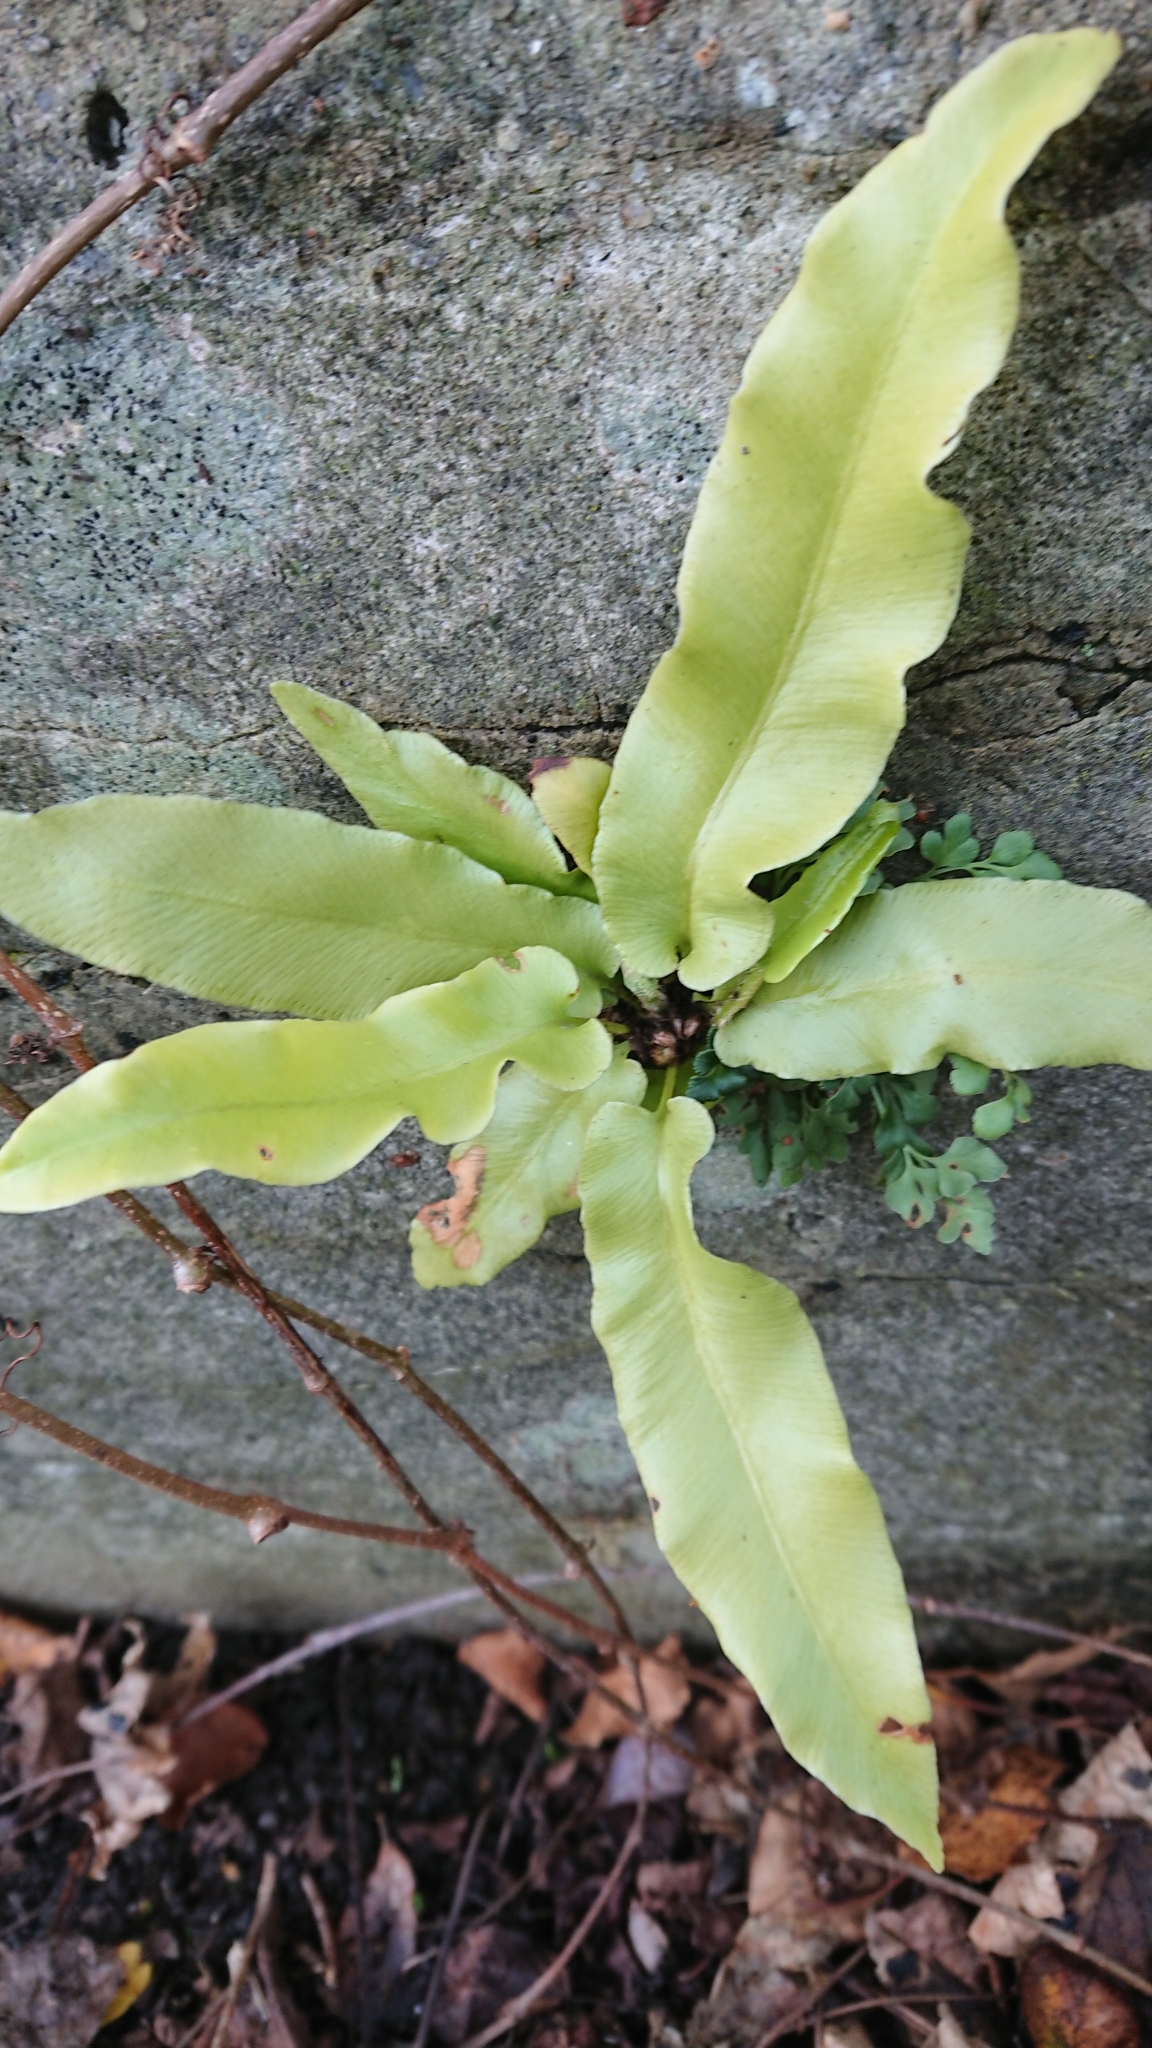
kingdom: Plantae
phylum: Tracheophyta
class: Polypodiopsida
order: Polypodiales
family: Aspleniaceae
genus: Asplenium
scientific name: Asplenium scolopendrium
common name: Hart's-tongue fern
